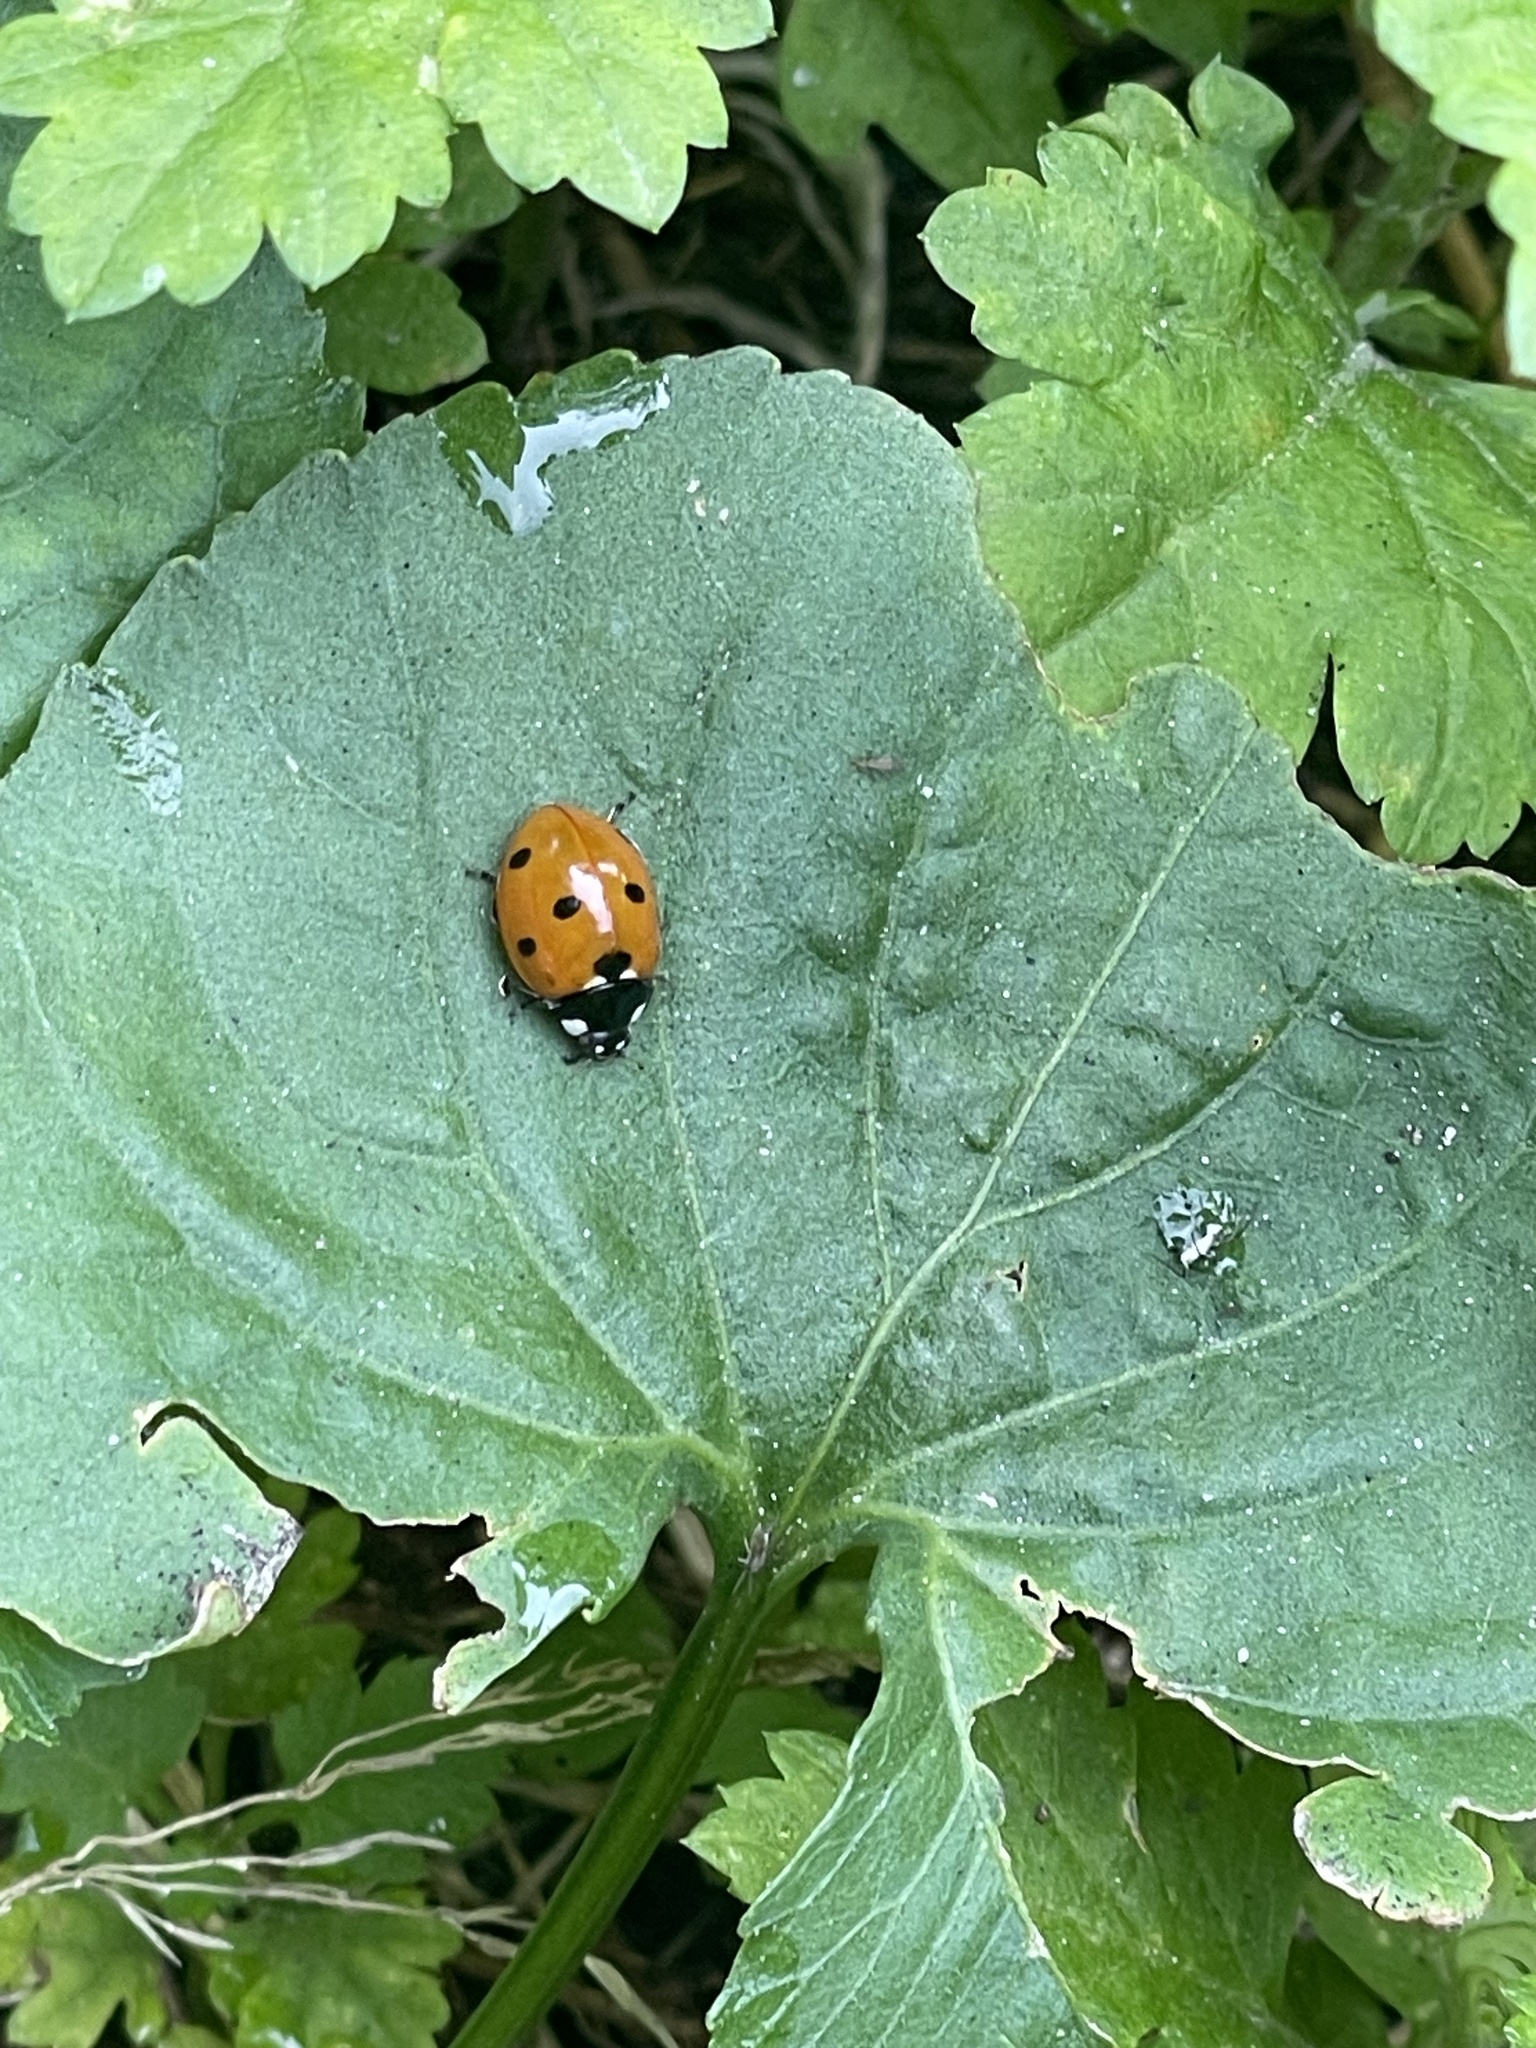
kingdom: Animalia
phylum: Arthropoda
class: Insecta
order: Coleoptera
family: Coccinellidae
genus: Coccinella
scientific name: Coccinella septempunctata
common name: Sevenspotted lady beetle
